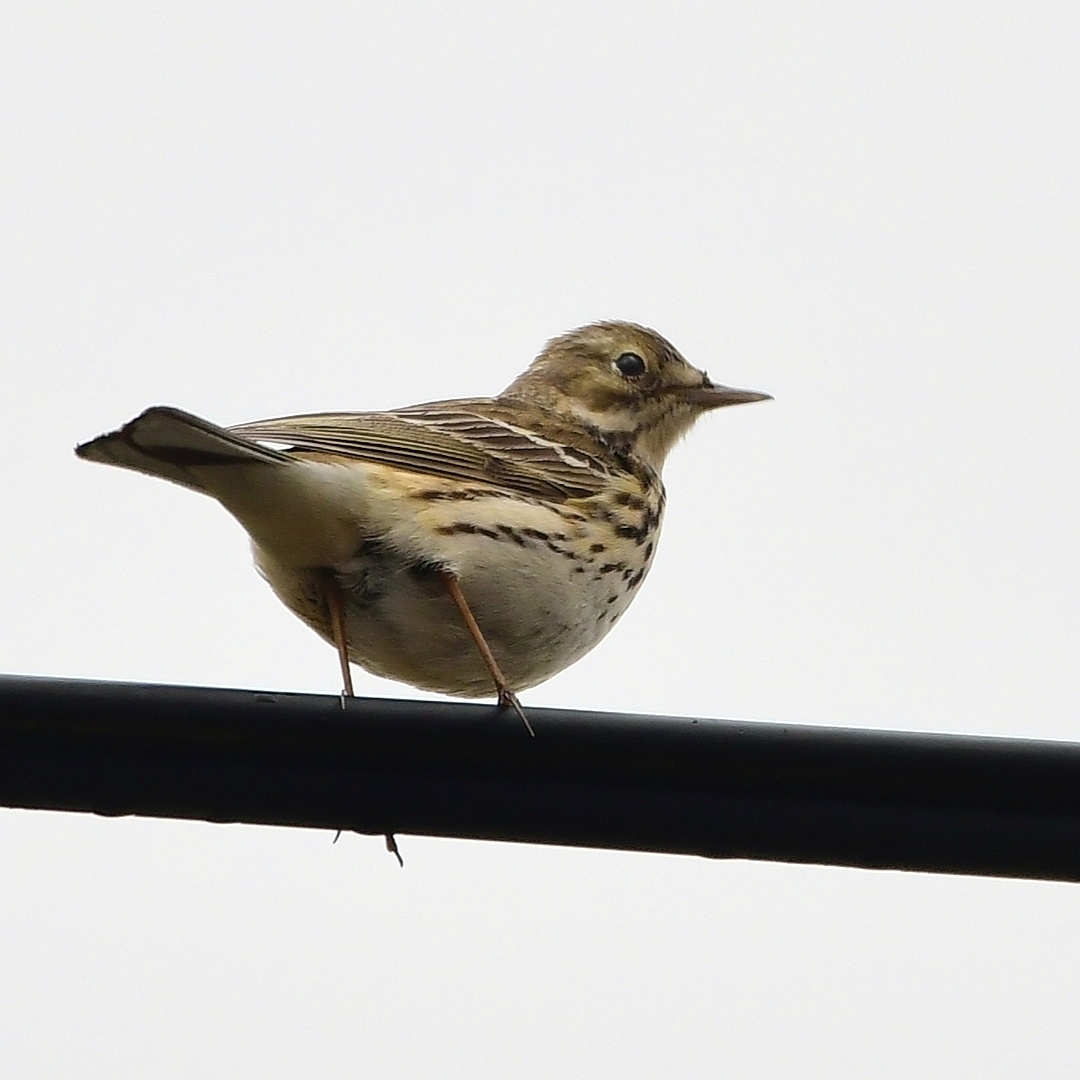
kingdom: Animalia
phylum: Chordata
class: Aves
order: Passeriformes
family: Motacillidae
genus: Anthus
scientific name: Anthus pratensis
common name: Meadow pipit
